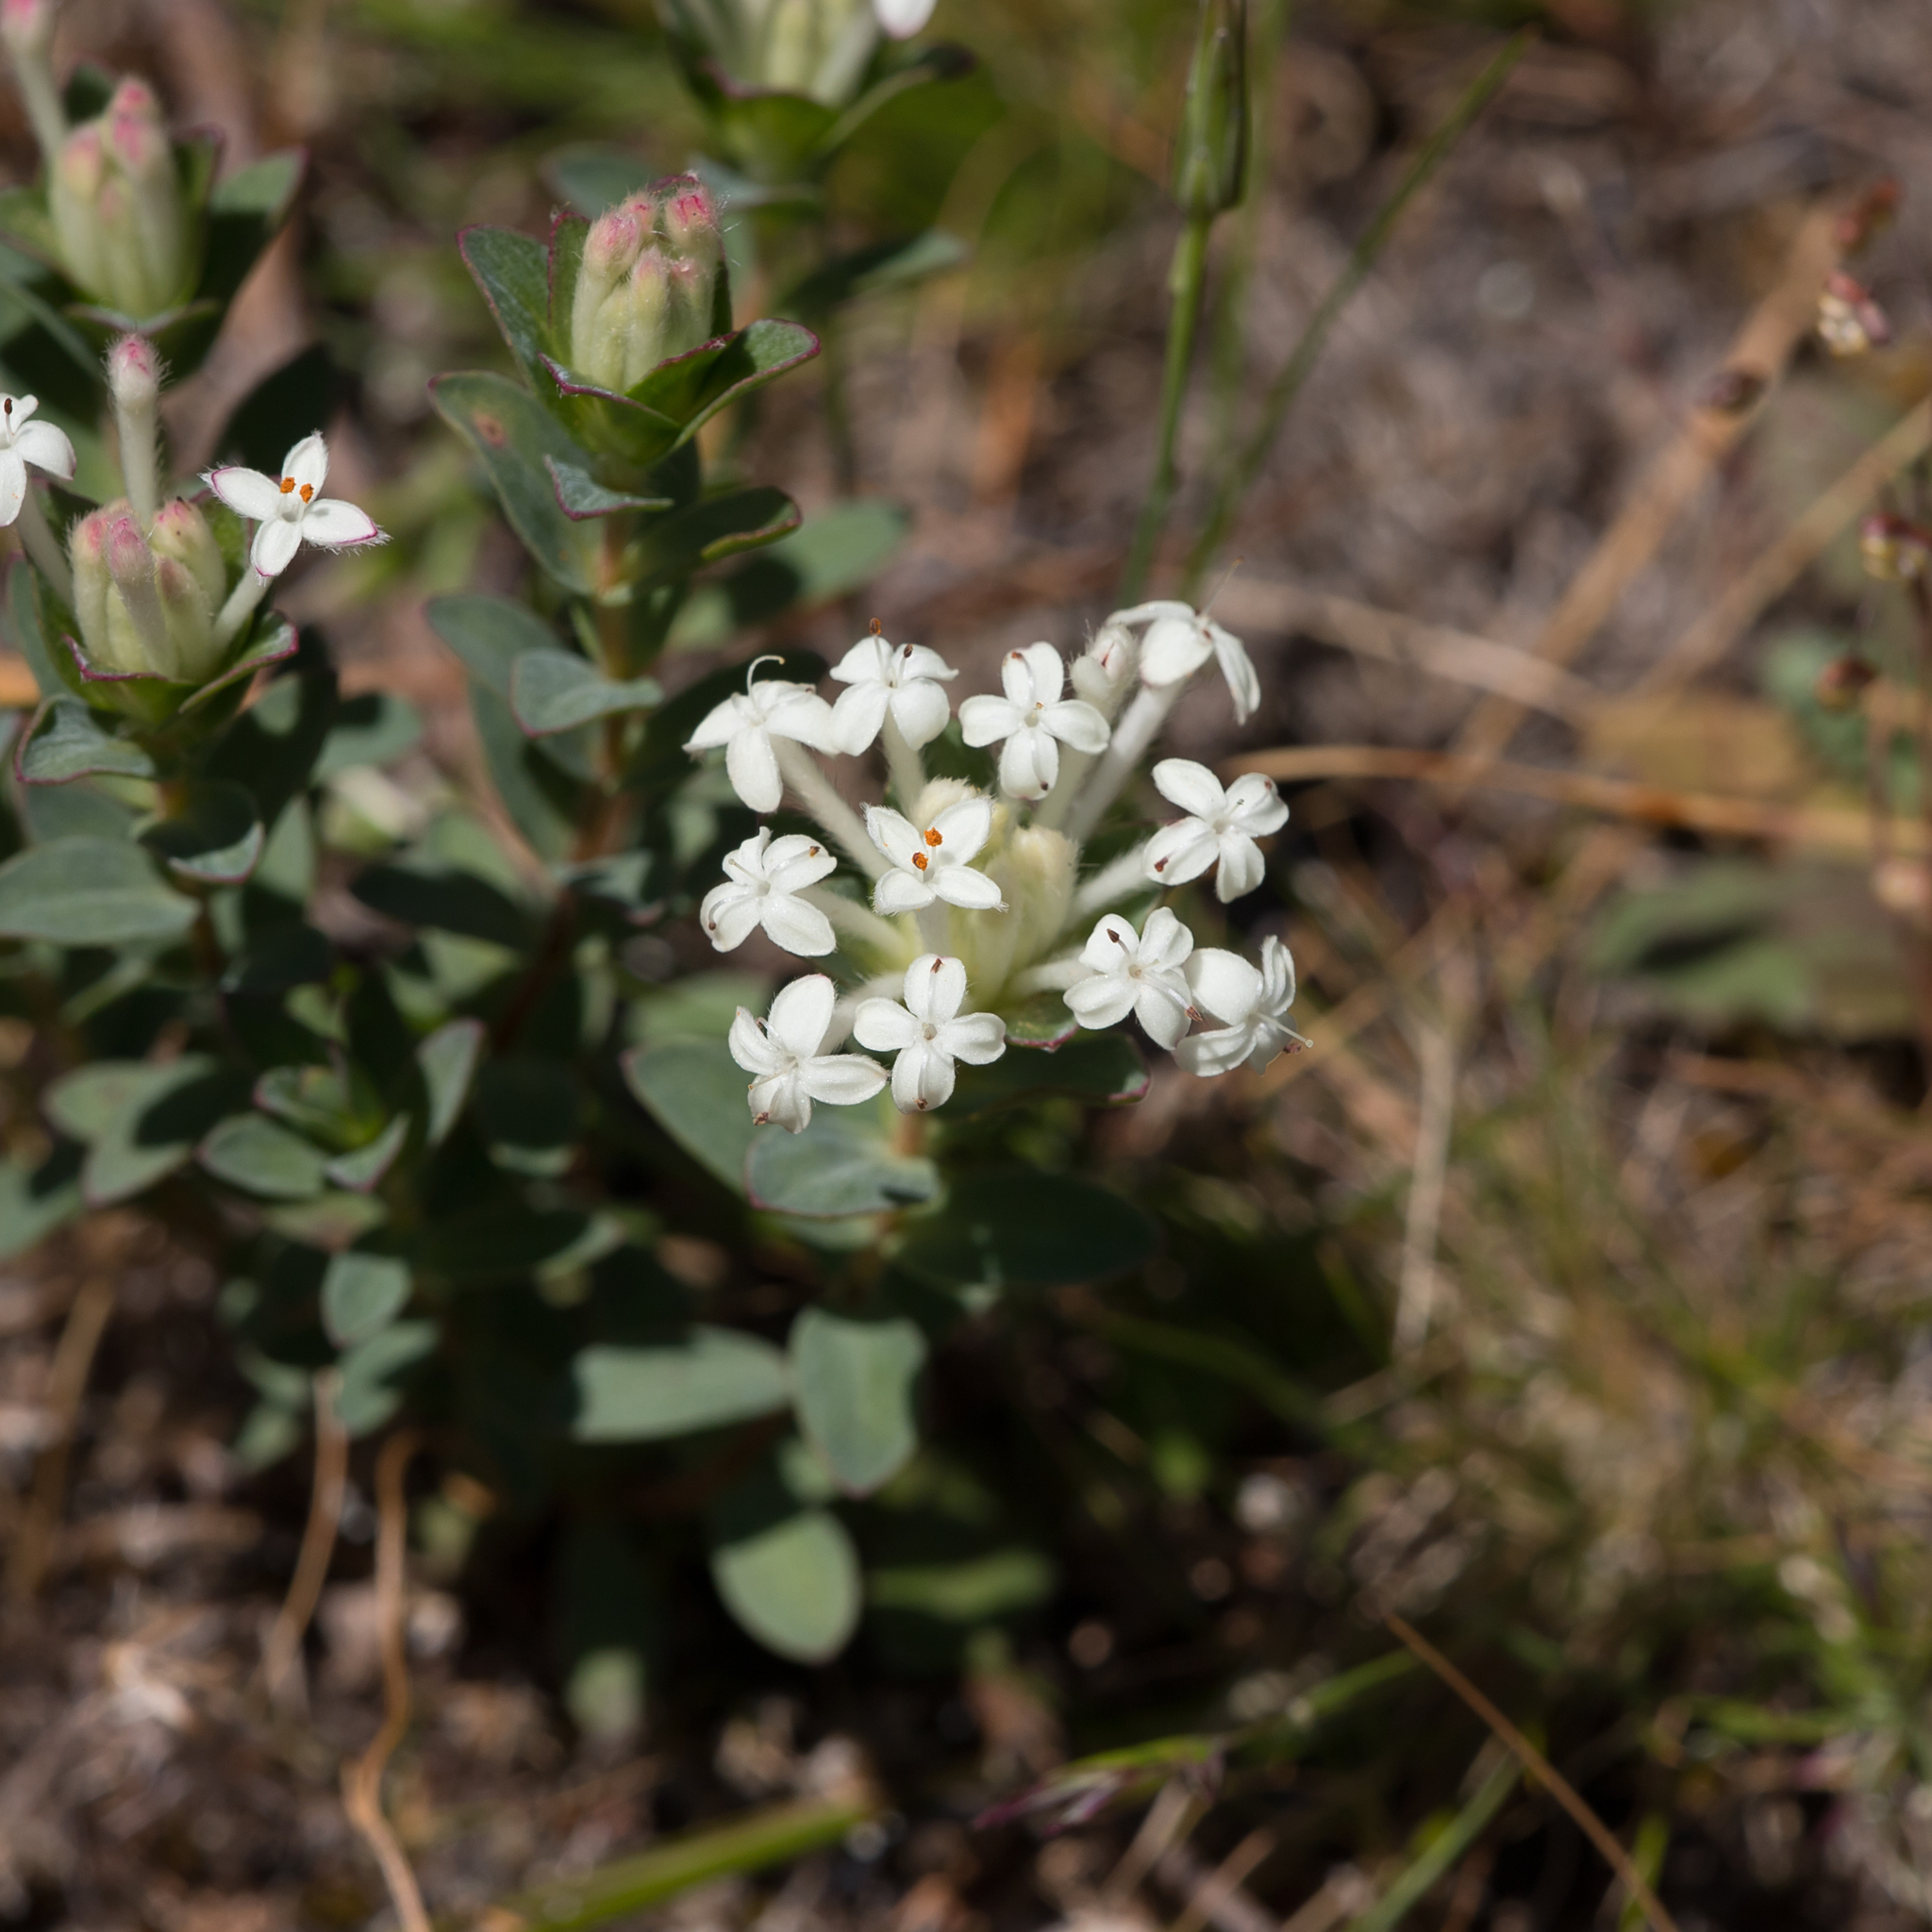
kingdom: Plantae
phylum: Tracheophyta
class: Magnoliopsida
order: Malvales
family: Thymelaeaceae
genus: Pimelea
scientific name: Pimelea humilis
